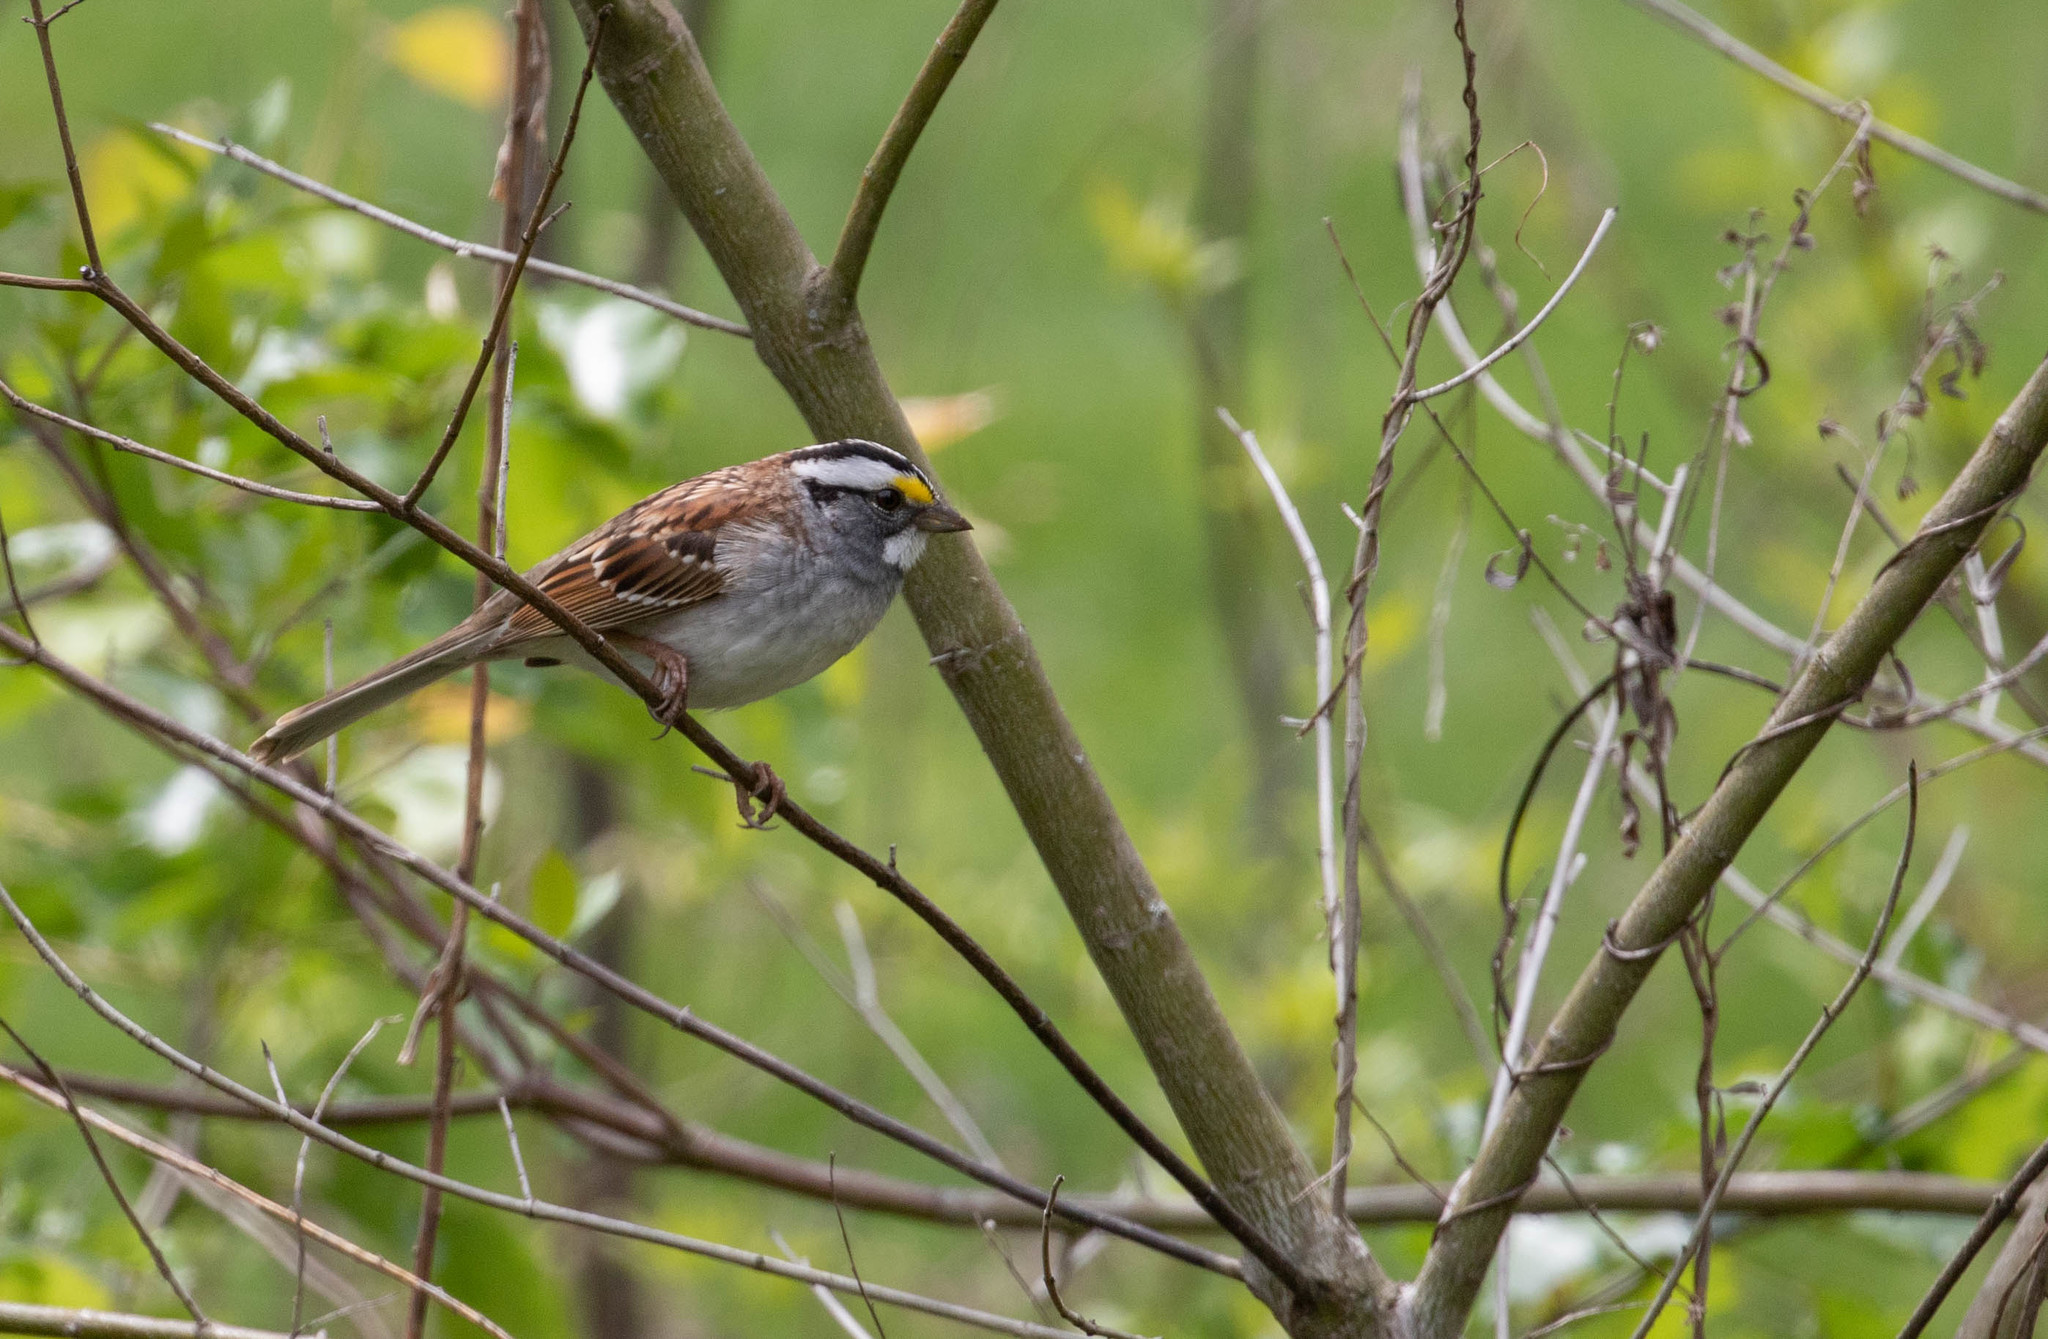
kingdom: Animalia
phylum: Chordata
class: Aves
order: Passeriformes
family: Passerellidae
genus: Zonotrichia
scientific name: Zonotrichia albicollis
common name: White-throated sparrow
